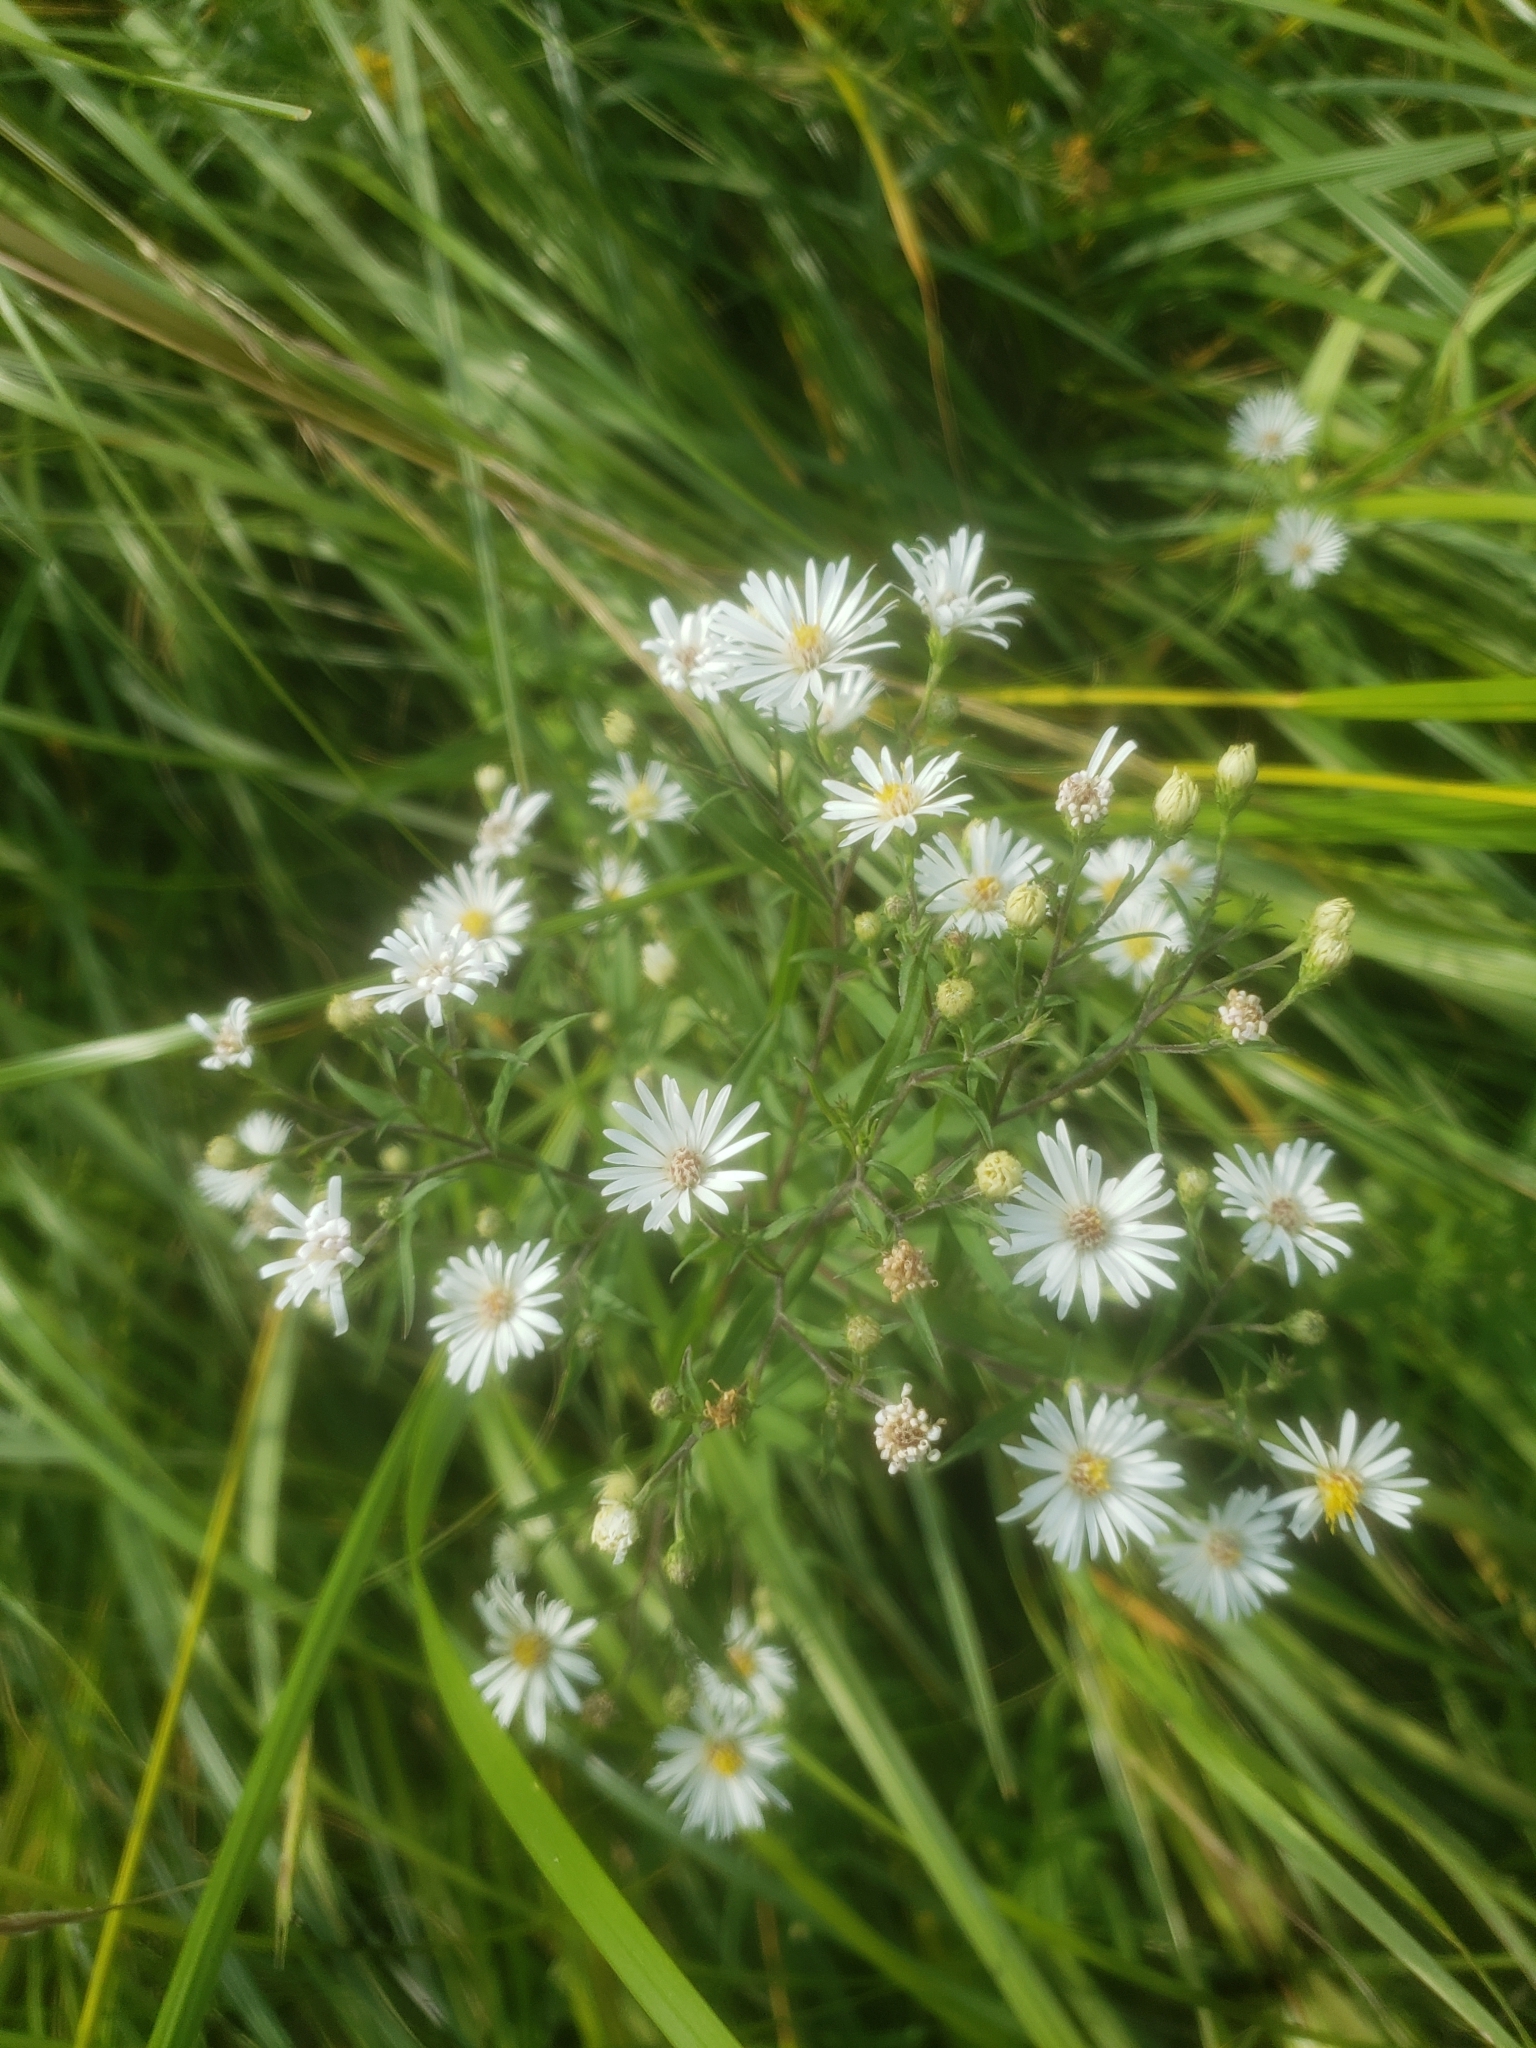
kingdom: Plantae
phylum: Tracheophyta
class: Magnoliopsida
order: Asterales
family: Asteraceae
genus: Symphyotrichum
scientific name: Symphyotrichum lanceolatum
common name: Panicled aster
